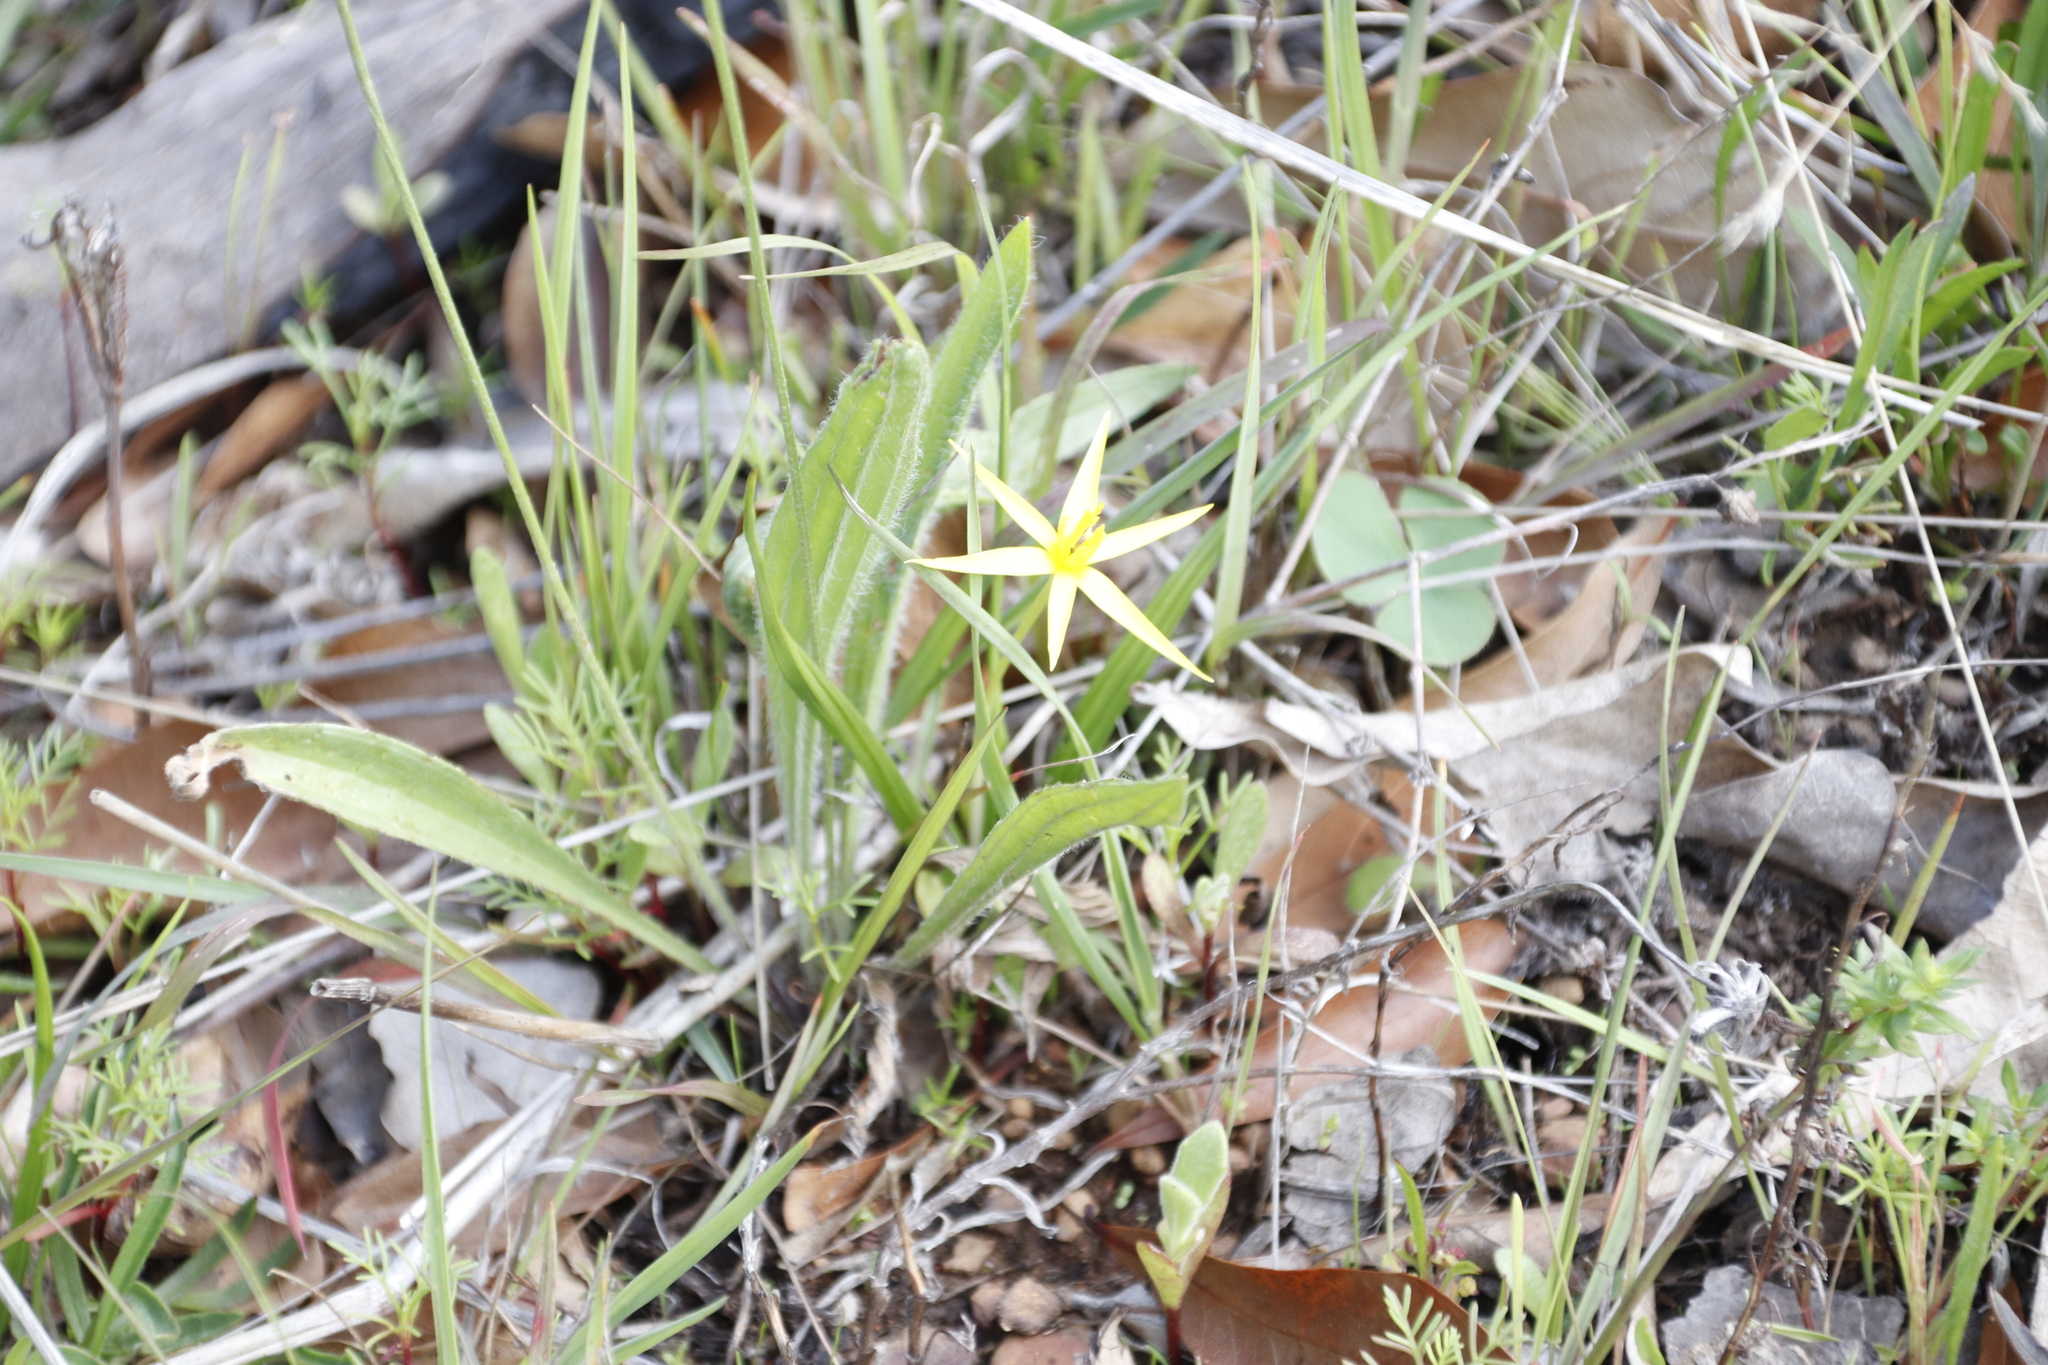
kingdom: Plantae
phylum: Tracheophyta
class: Liliopsida
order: Asparagales
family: Hypoxidaceae
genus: Empodium
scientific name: Empodium plicatum
